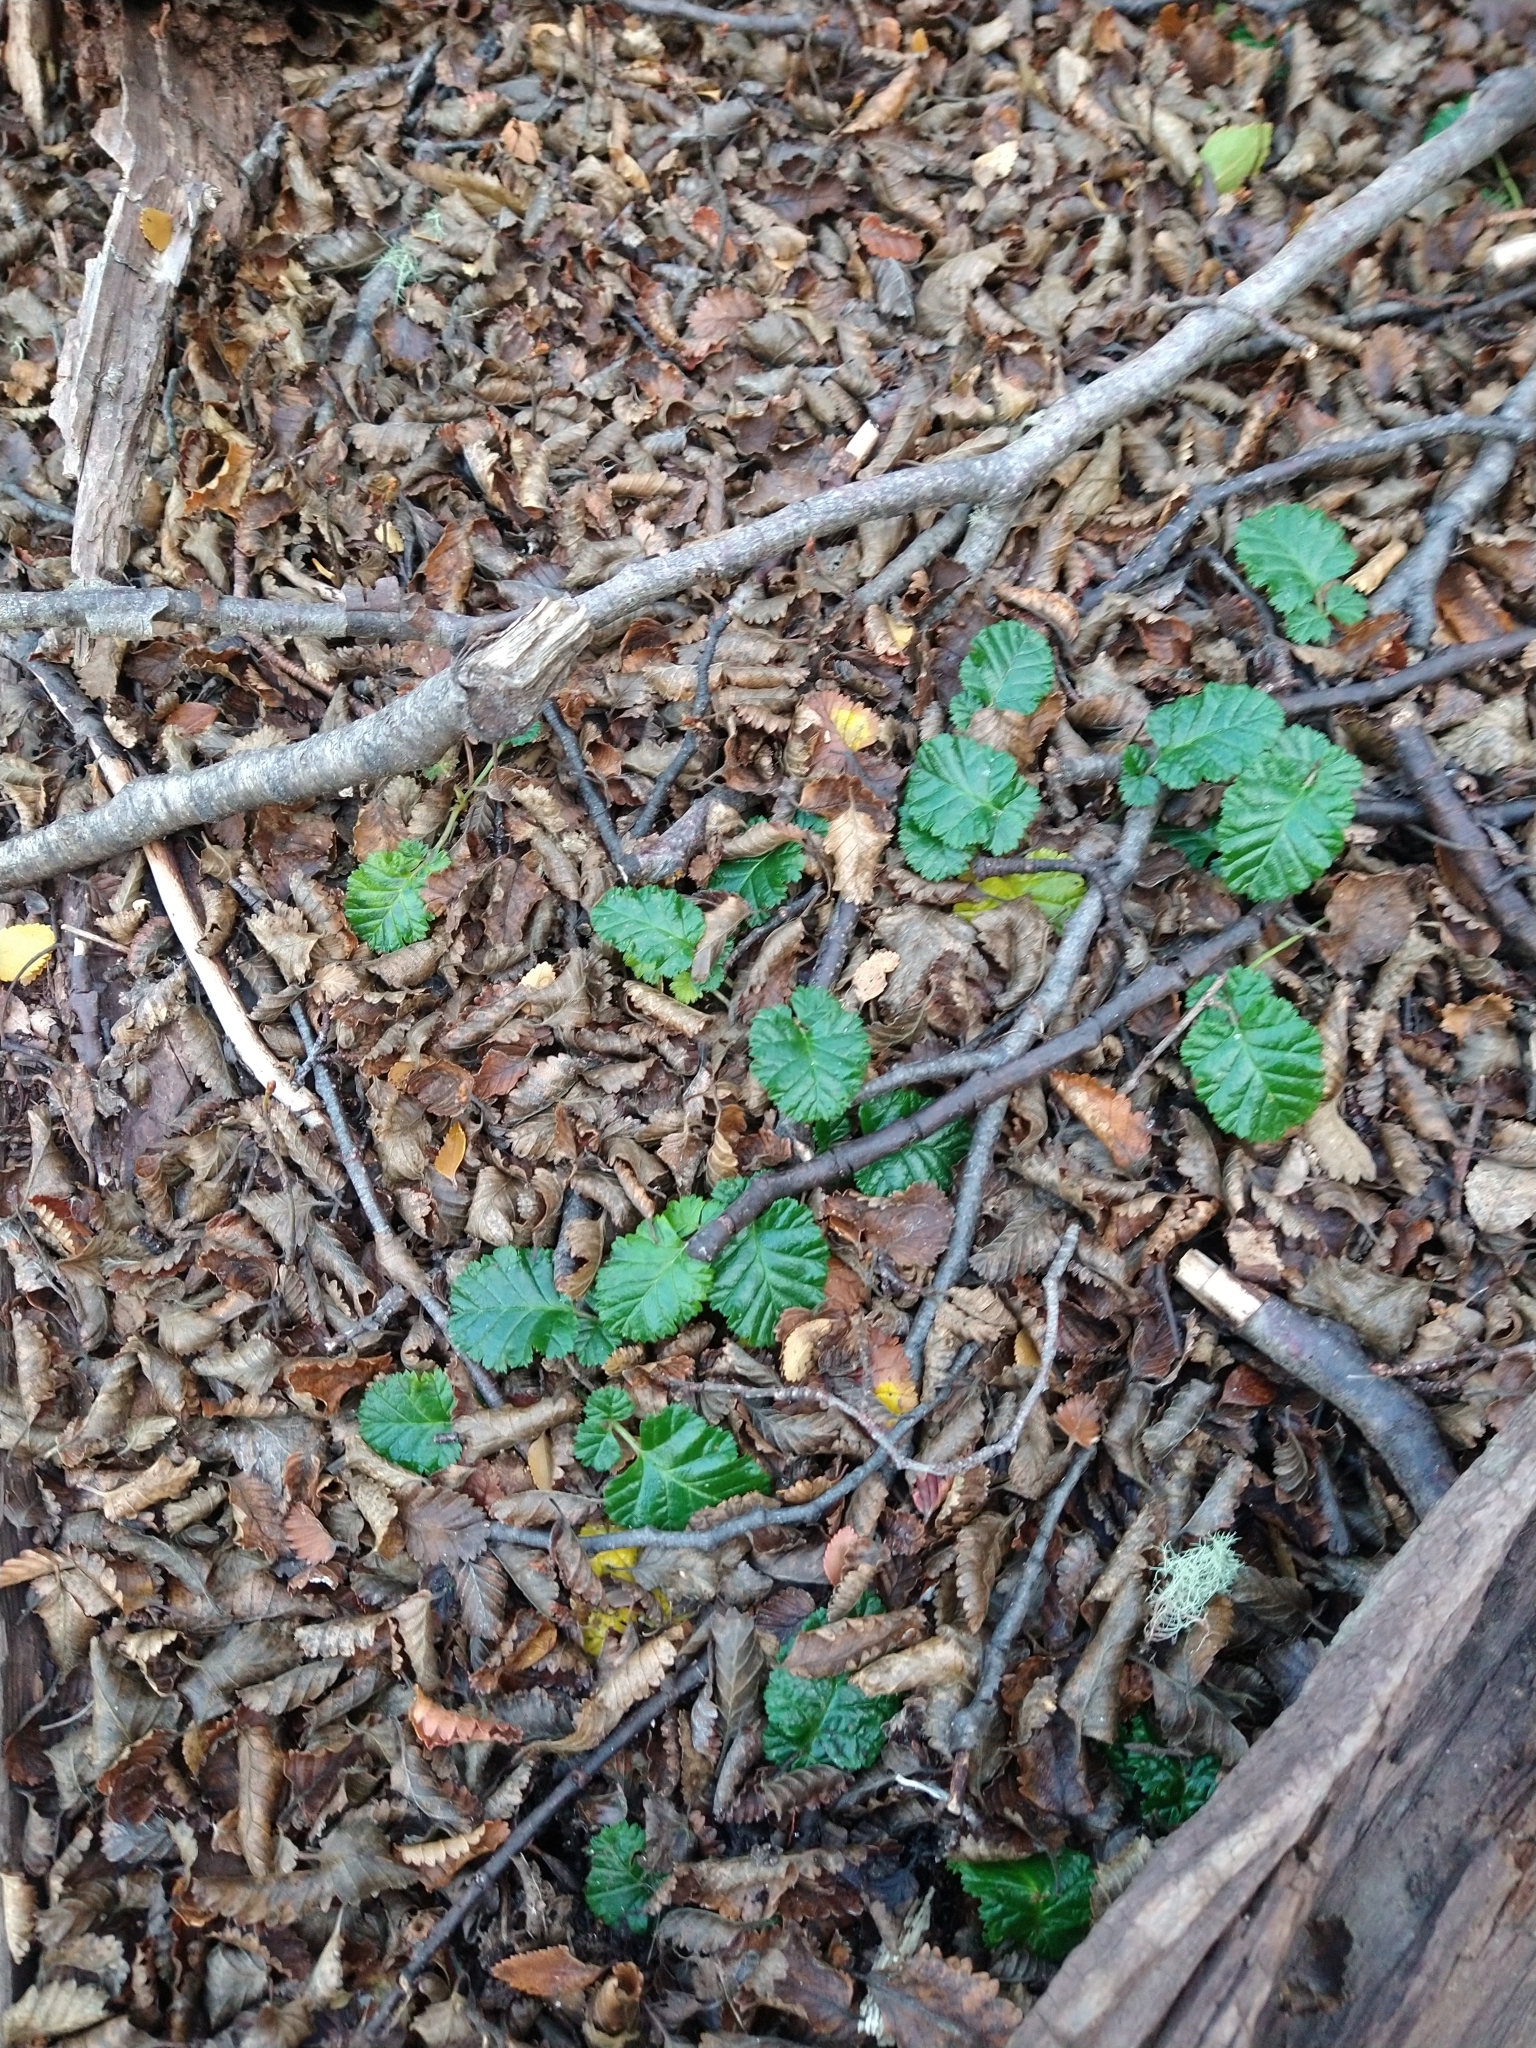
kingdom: Plantae
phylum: Tracheophyta
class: Magnoliopsida
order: Rosales
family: Rosaceae
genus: Rubus
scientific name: Rubus geoides
